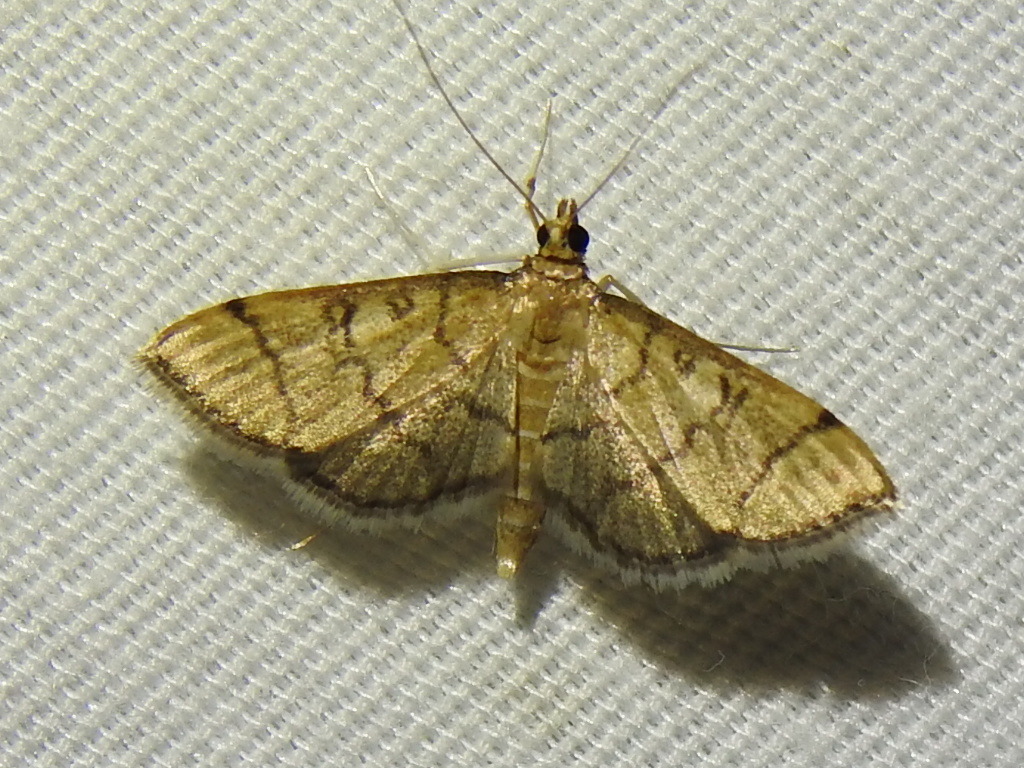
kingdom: Animalia
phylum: Arthropoda
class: Insecta
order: Lepidoptera
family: Crambidae
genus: Lamprosema
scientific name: Lamprosema Blepharomastix ranalis
